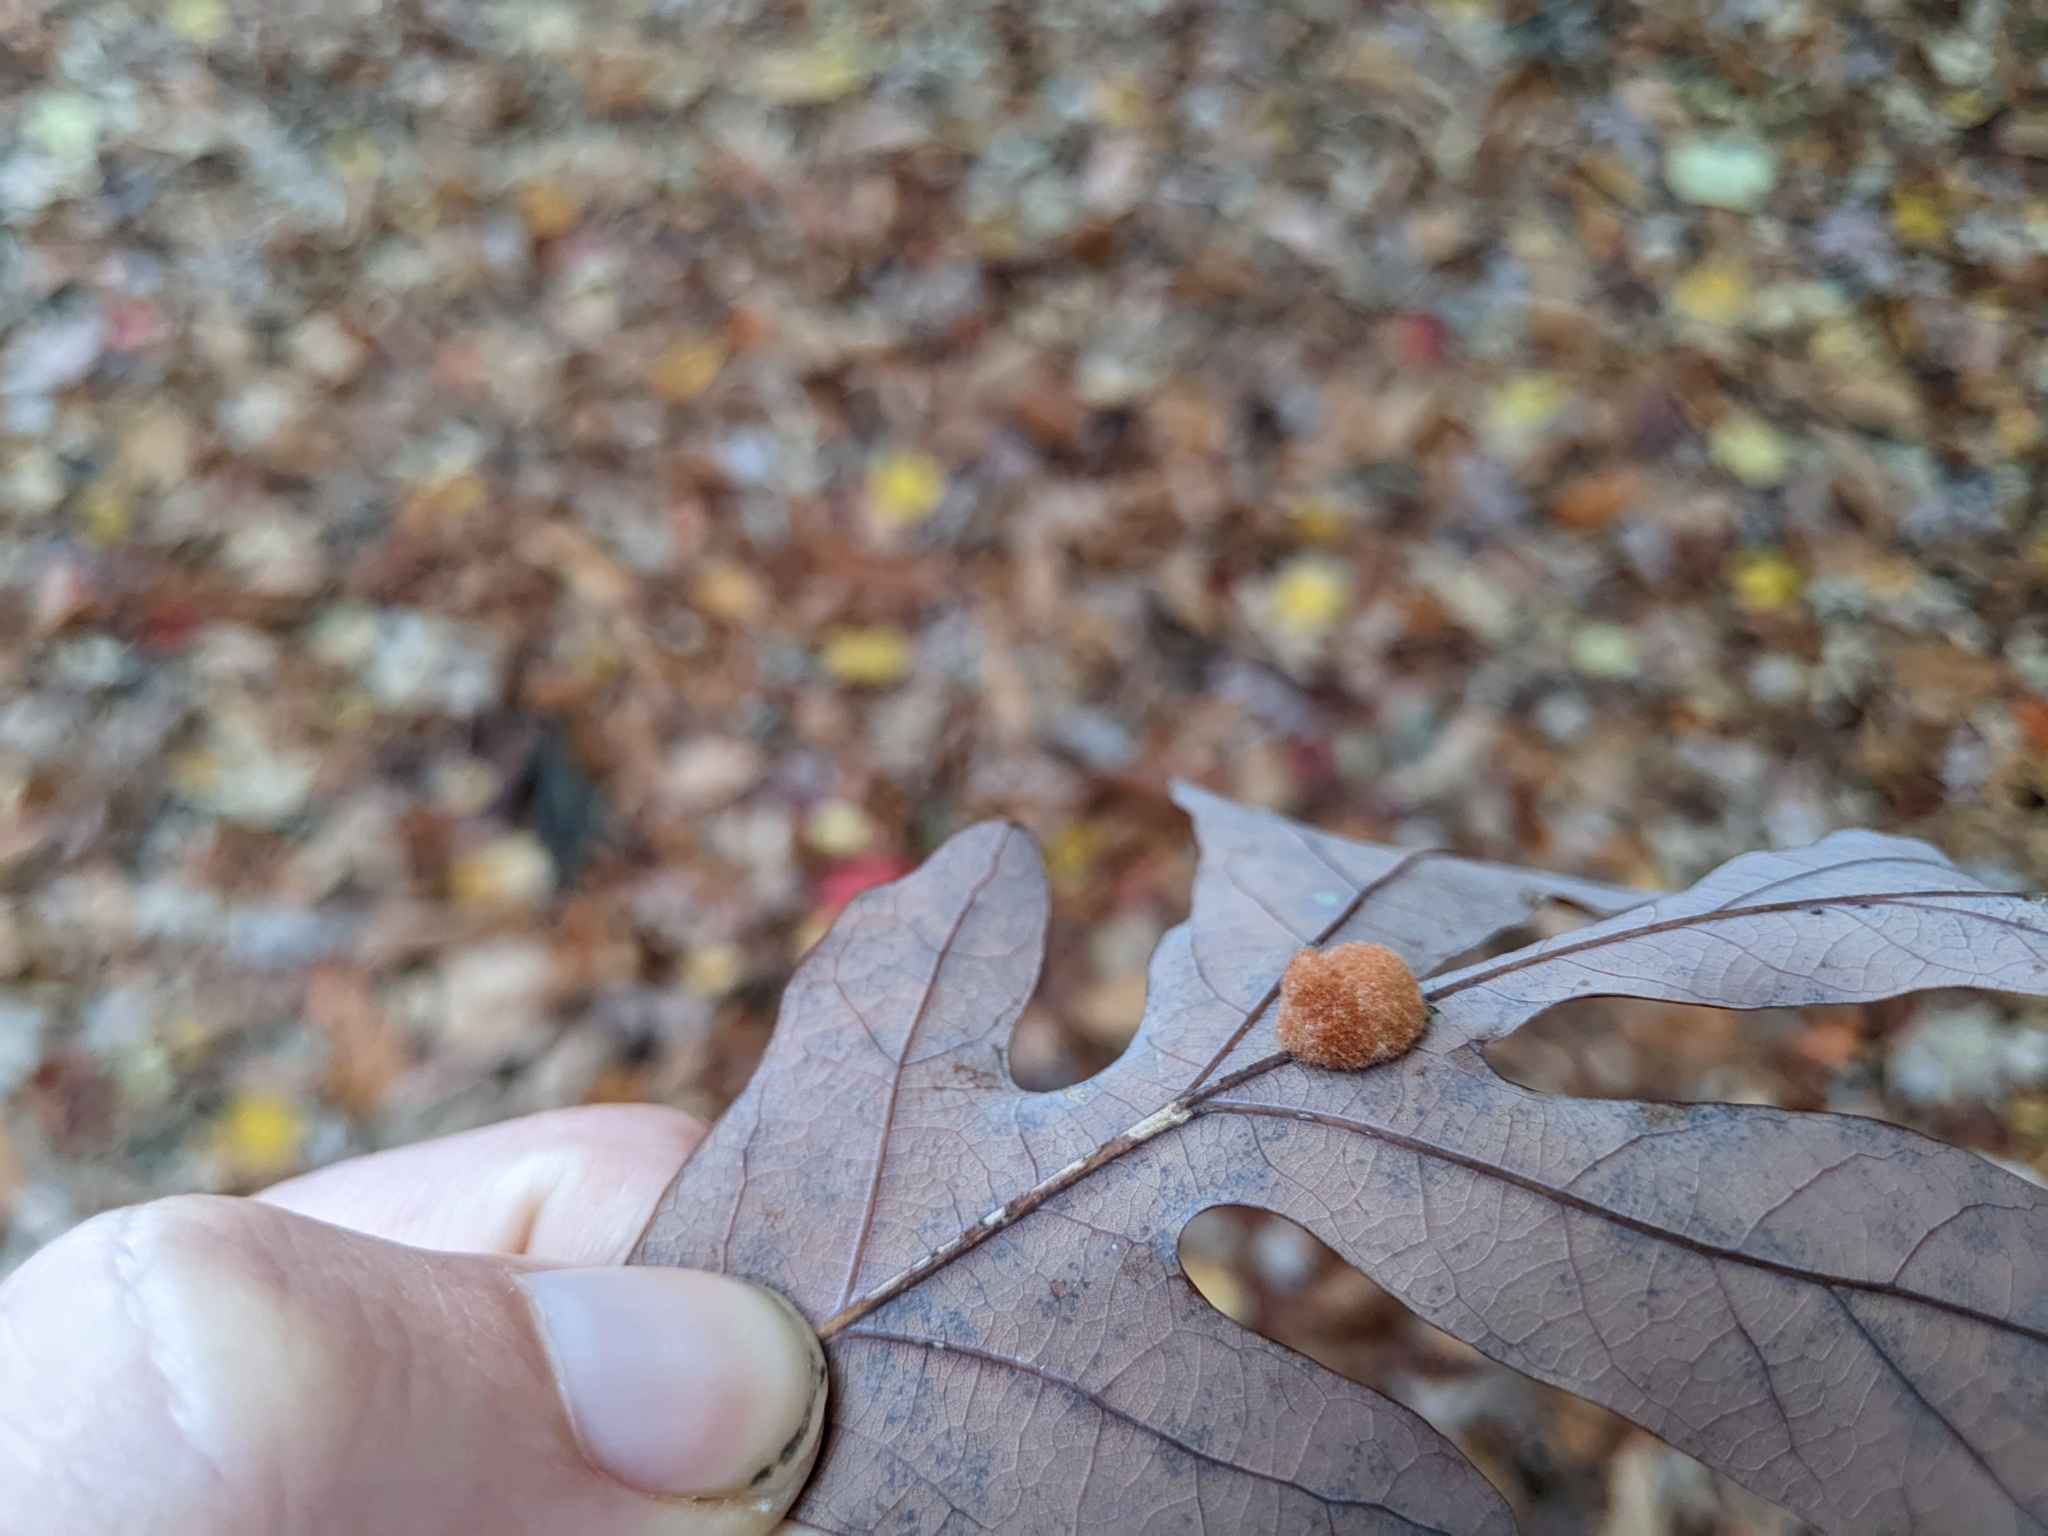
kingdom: Animalia
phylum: Arthropoda
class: Insecta
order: Hymenoptera
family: Cynipidae
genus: Andricus
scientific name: Andricus quercusflocci
